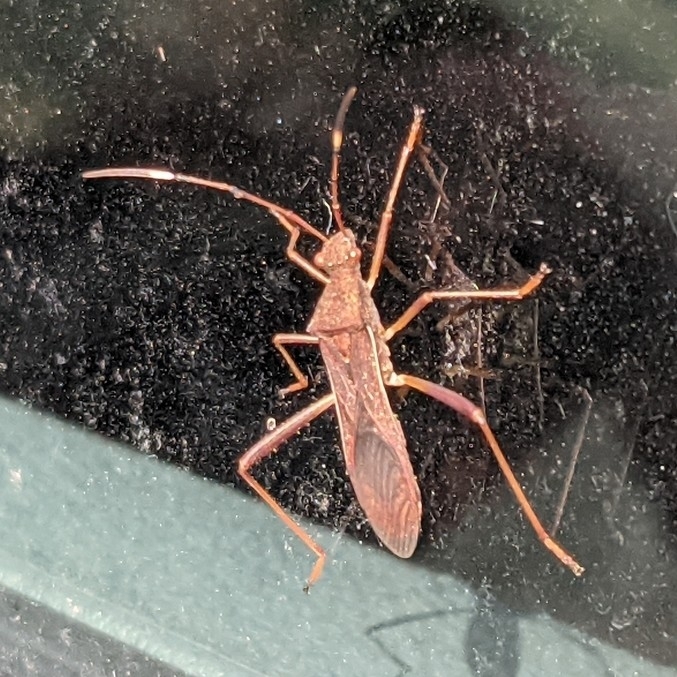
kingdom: Animalia
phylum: Arthropoda
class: Insecta
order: Hemiptera
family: Alydidae
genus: Megalotomus
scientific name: Megalotomus quinquespinosus
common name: Lupine bug
